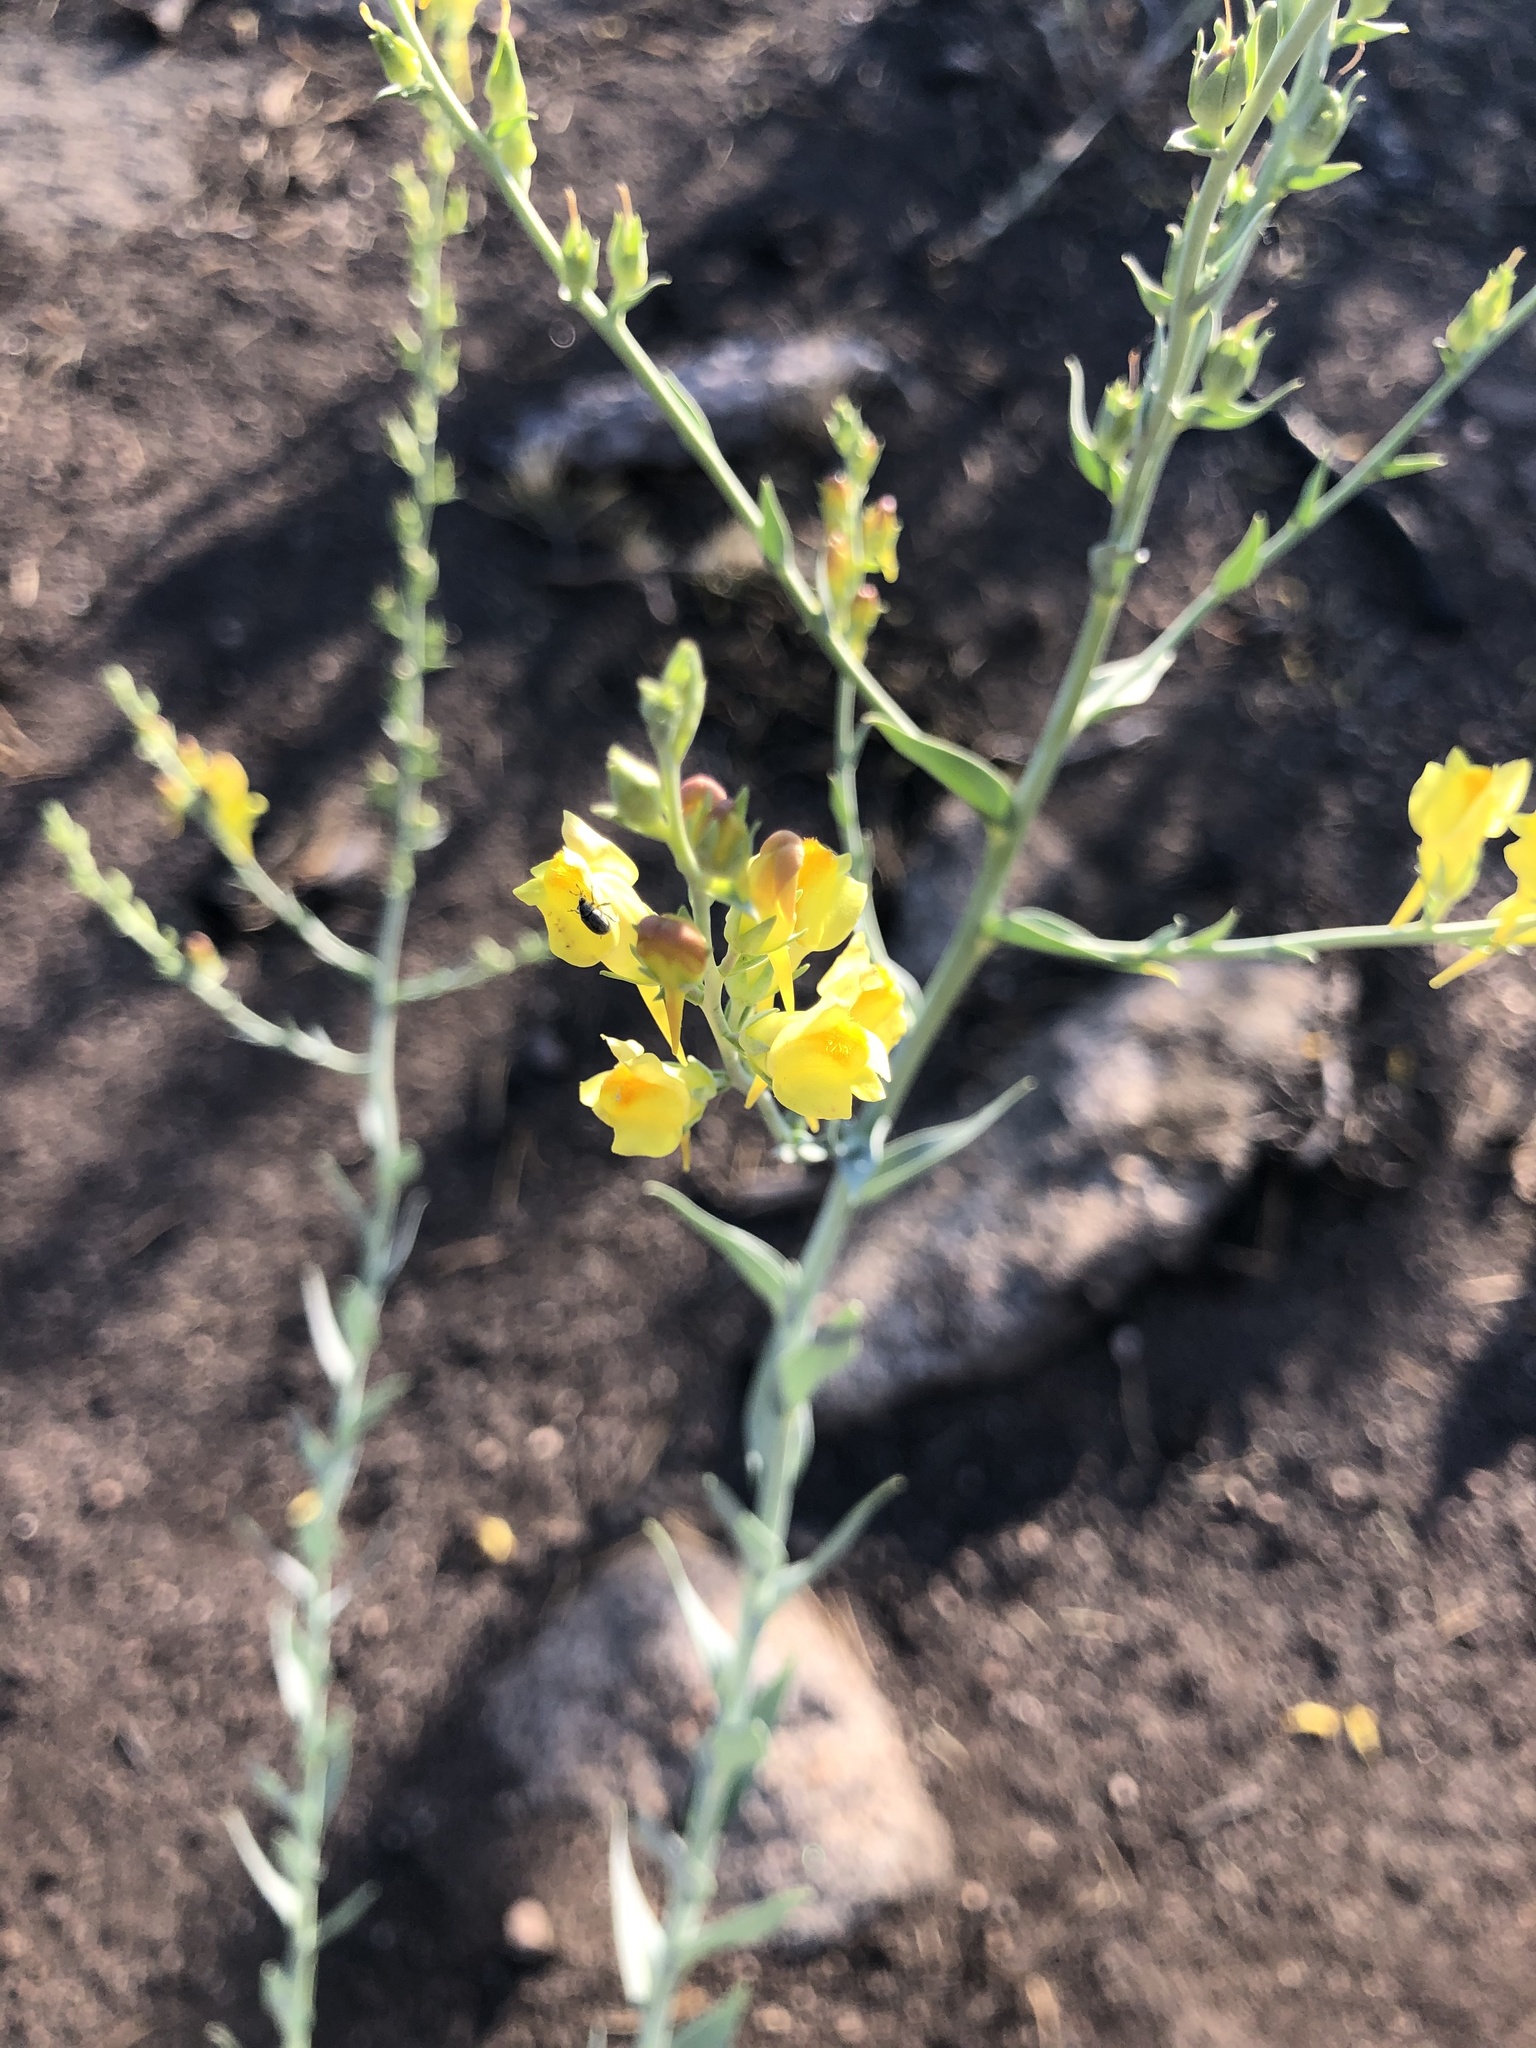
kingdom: Plantae
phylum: Tracheophyta
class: Magnoliopsida
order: Lamiales
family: Plantaginaceae
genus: Linaria
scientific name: Linaria genistifolia
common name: Broomleaf toadflax
